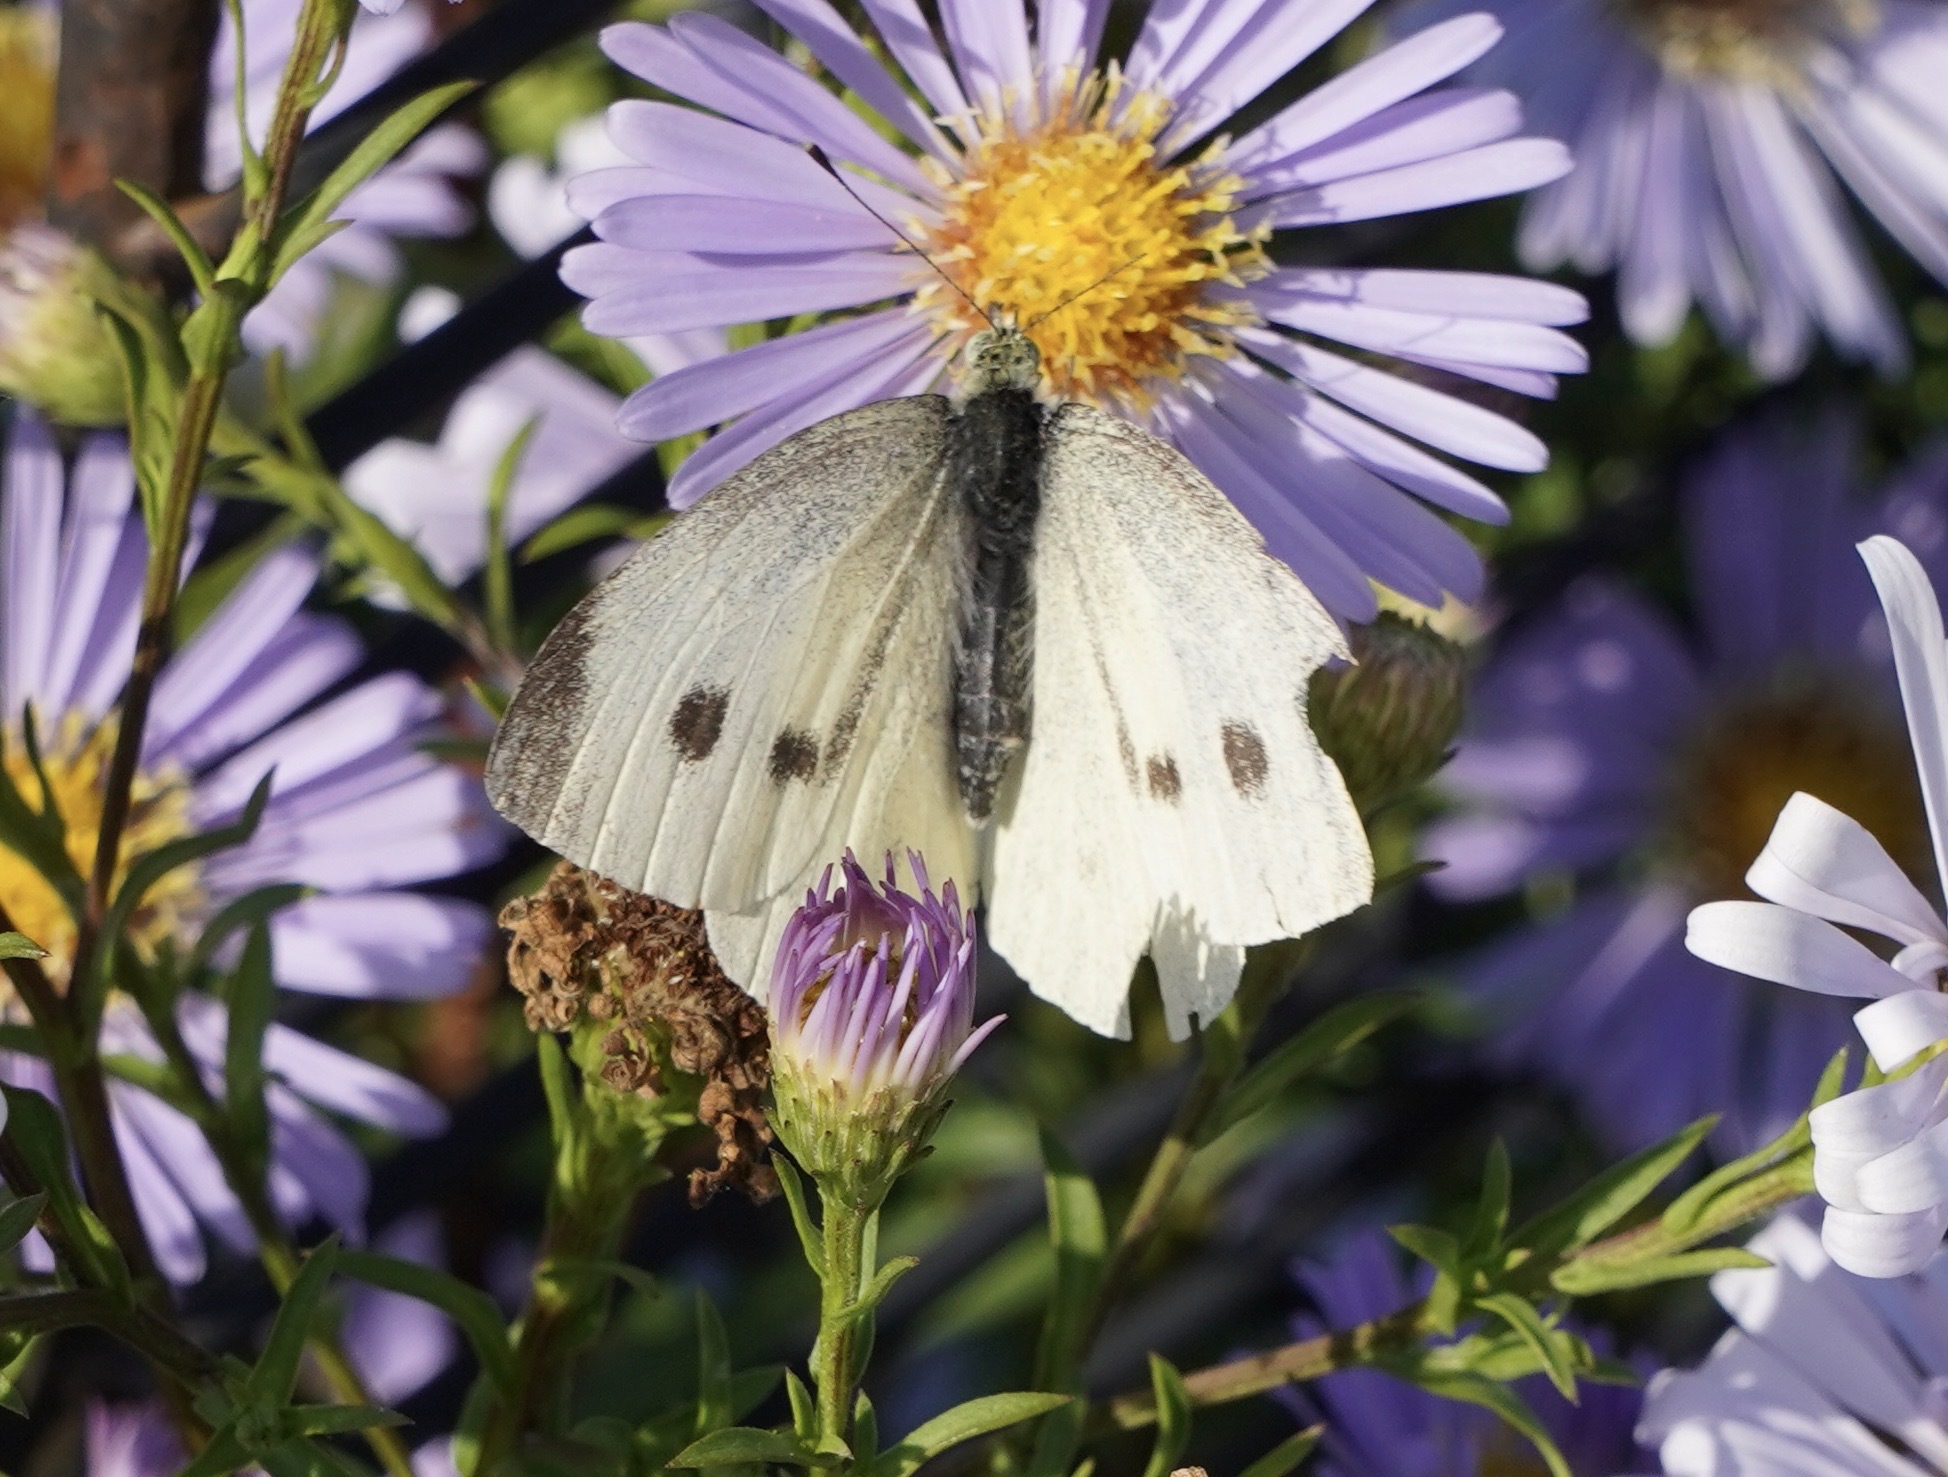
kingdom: Animalia
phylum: Arthropoda
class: Insecta
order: Lepidoptera
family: Pieridae
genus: Pieris
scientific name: Pieris rapae
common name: Small white
